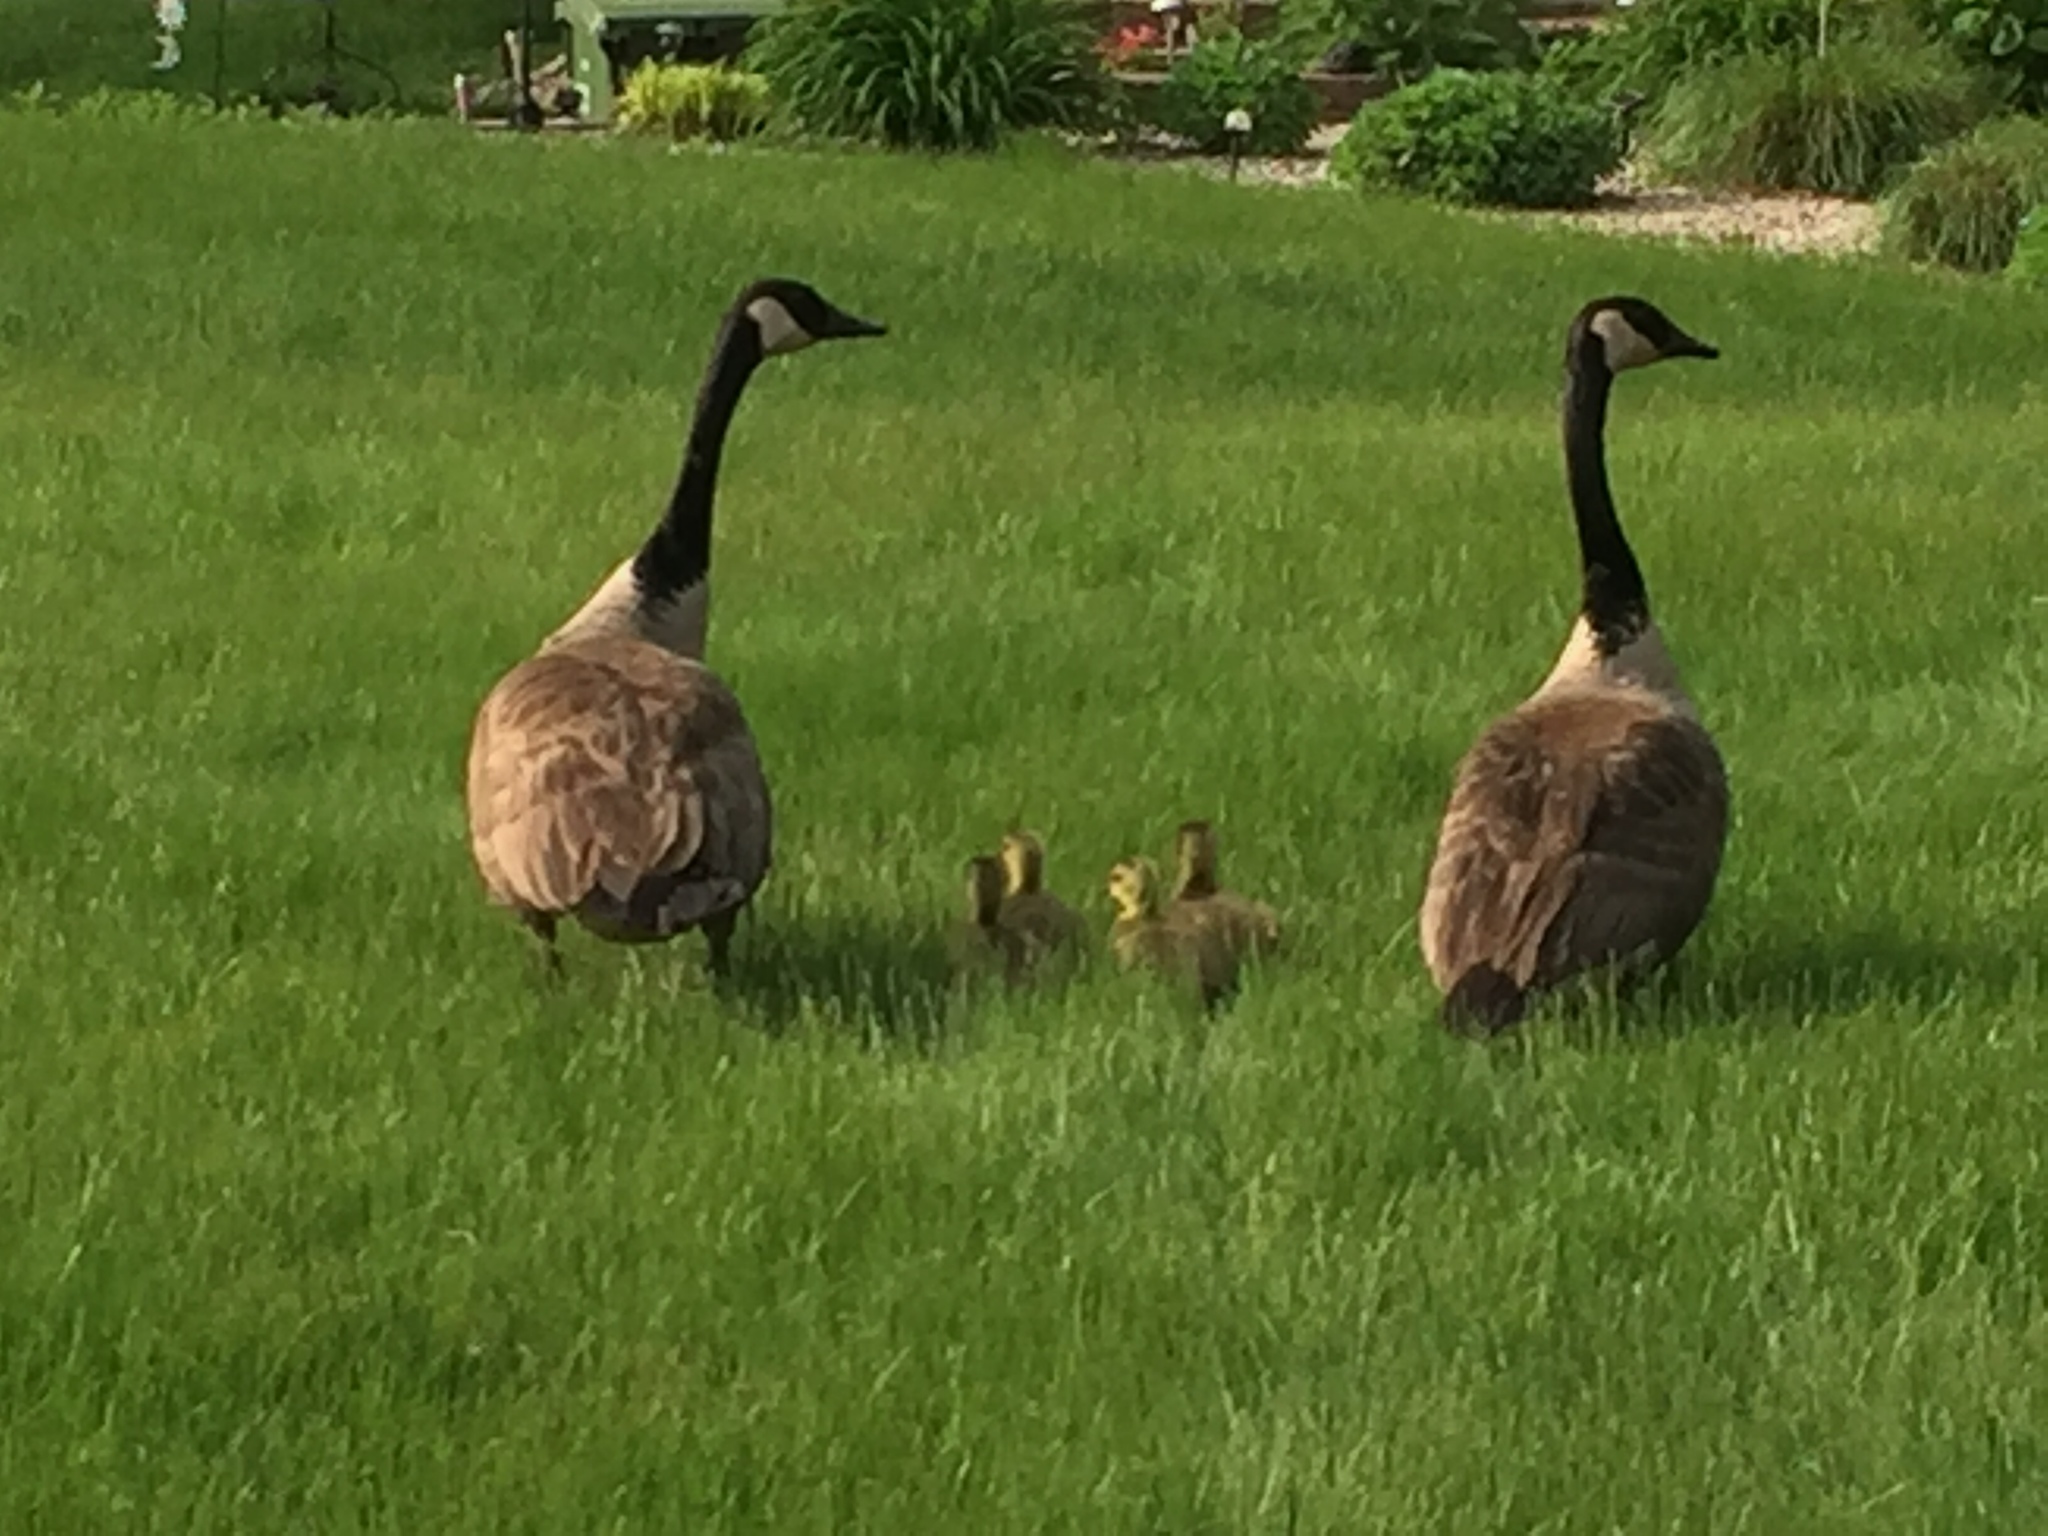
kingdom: Animalia
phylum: Chordata
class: Aves
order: Anseriformes
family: Anatidae
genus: Branta
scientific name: Branta canadensis
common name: Canada goose
